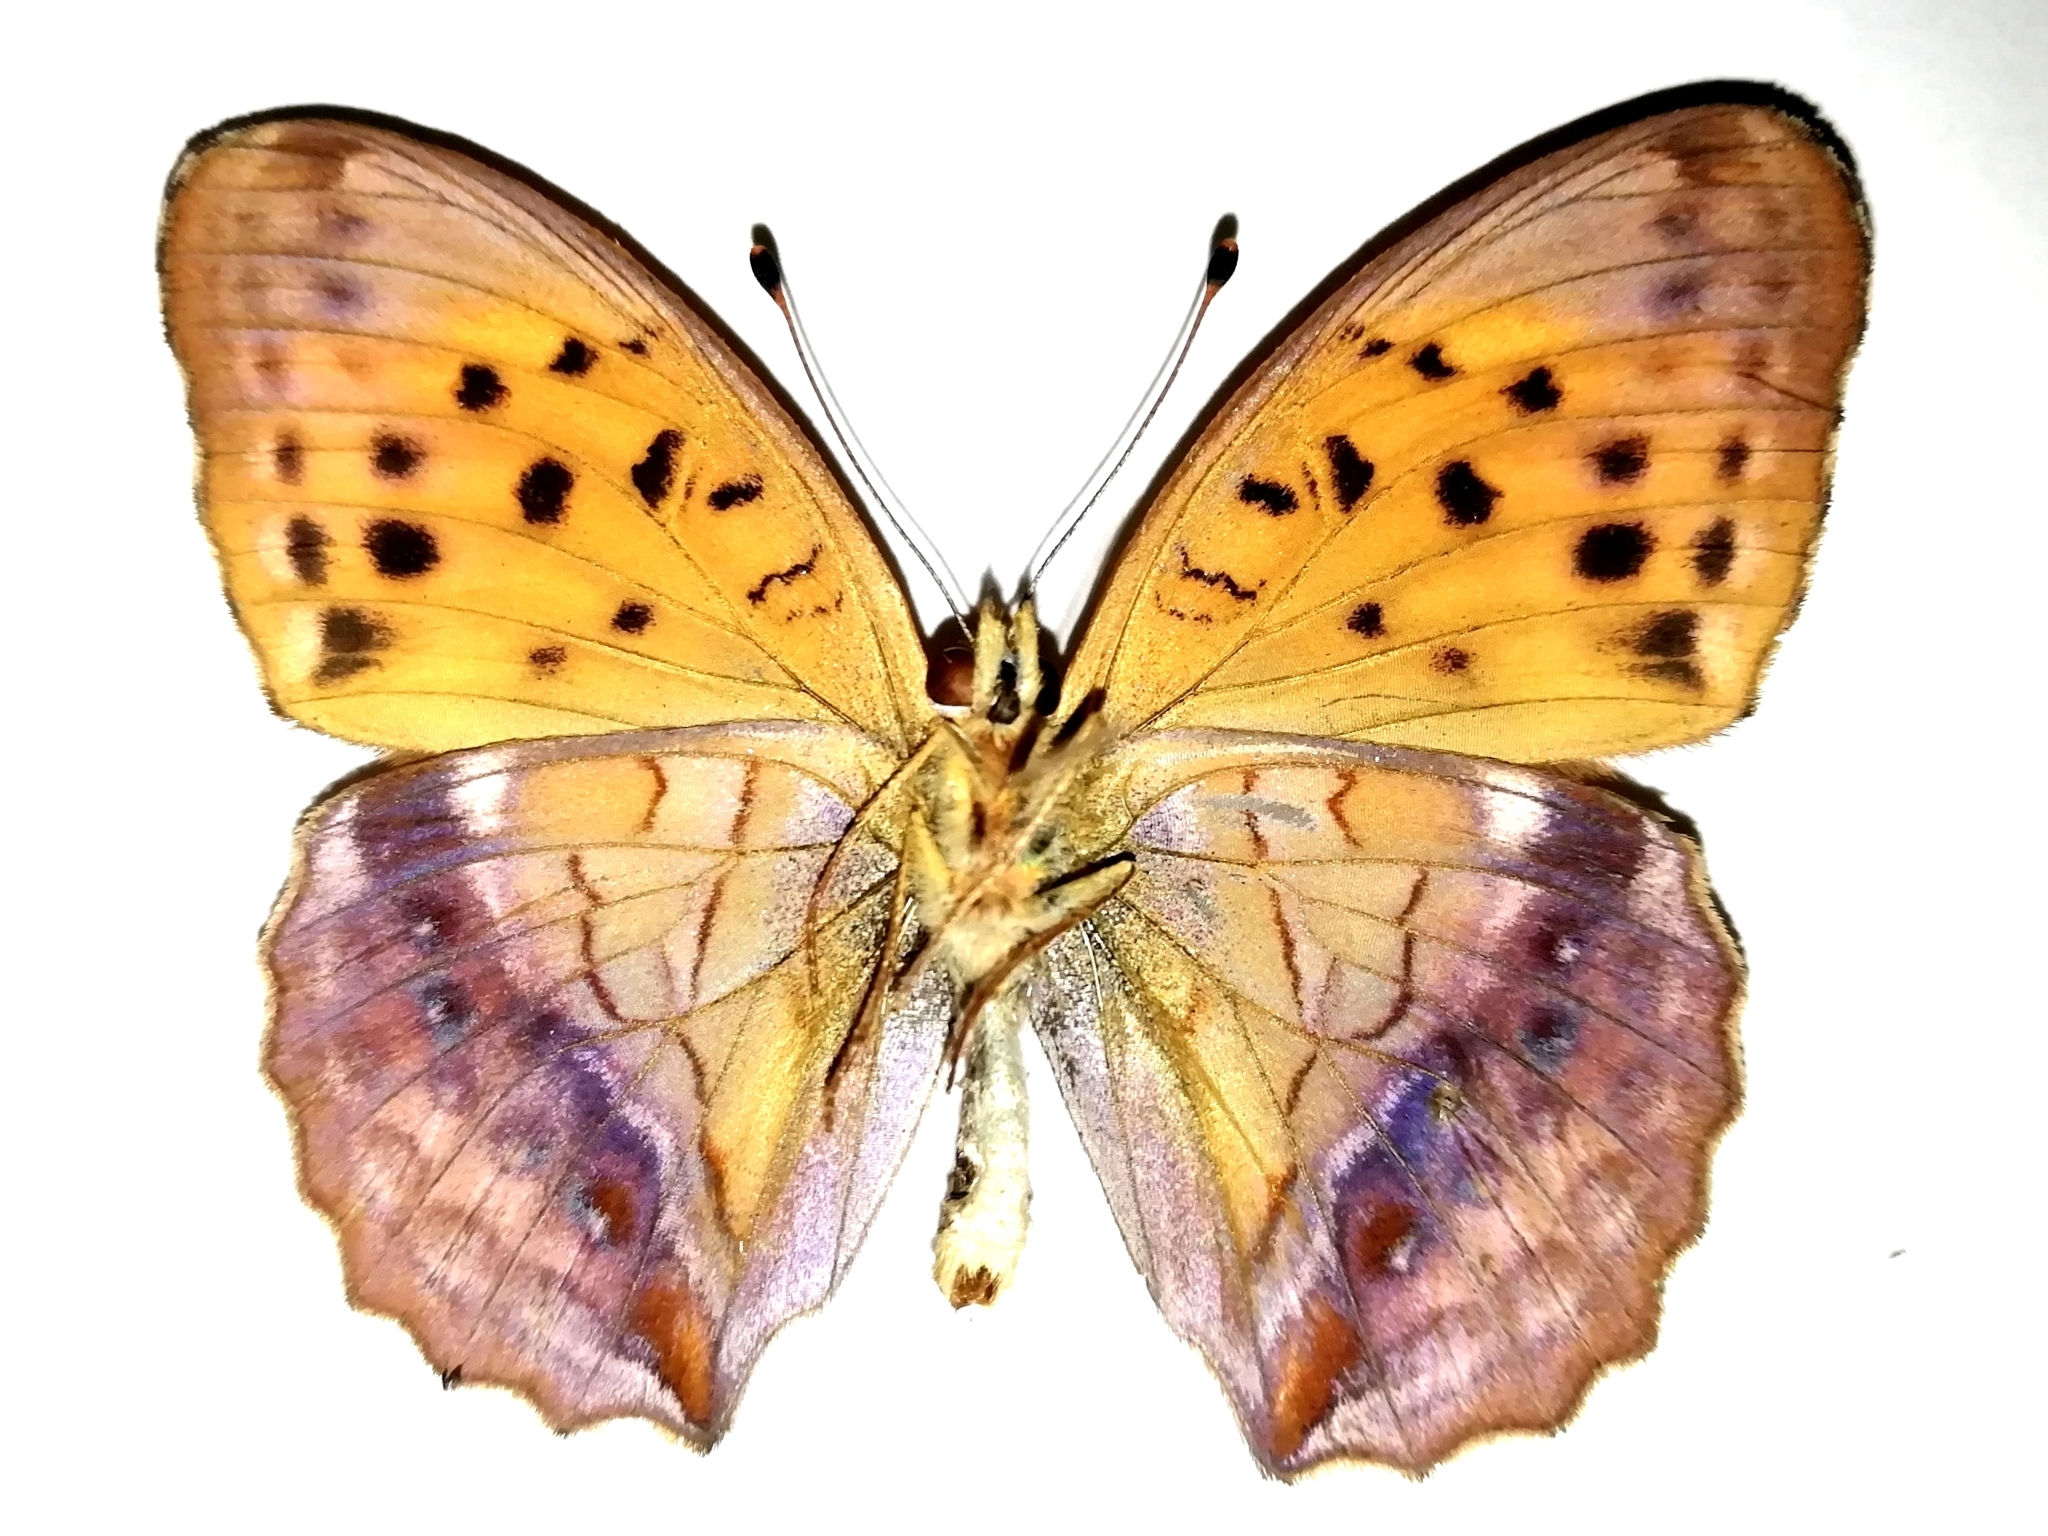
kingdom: Animalia
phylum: Arthropoda
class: Insecta
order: Lepidoptera
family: Nymphalidae
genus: Damora
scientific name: Damora sagana
